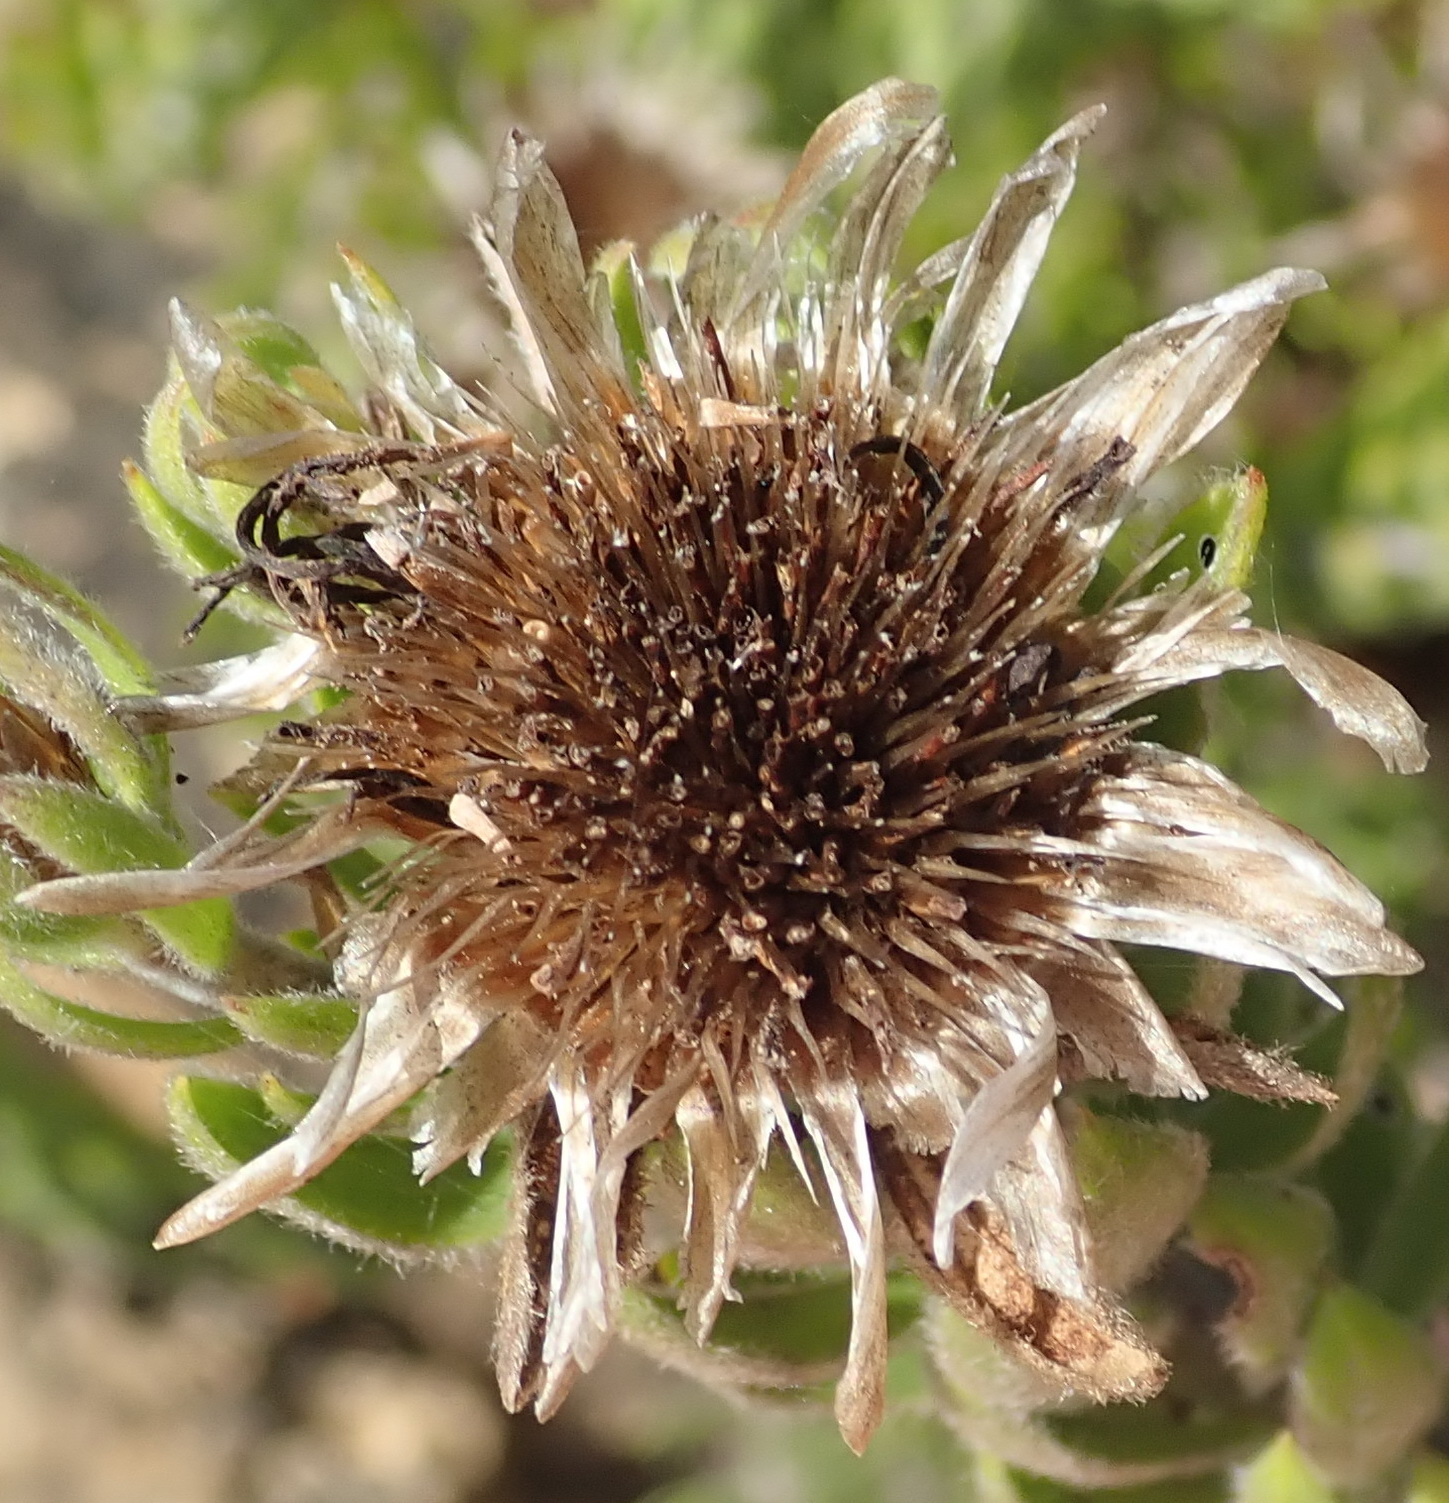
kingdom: Plantae
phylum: Tracheophyta
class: Magnoliopsida
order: Asterales
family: Asteraceae
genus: Oedera
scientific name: Oedera calycina
